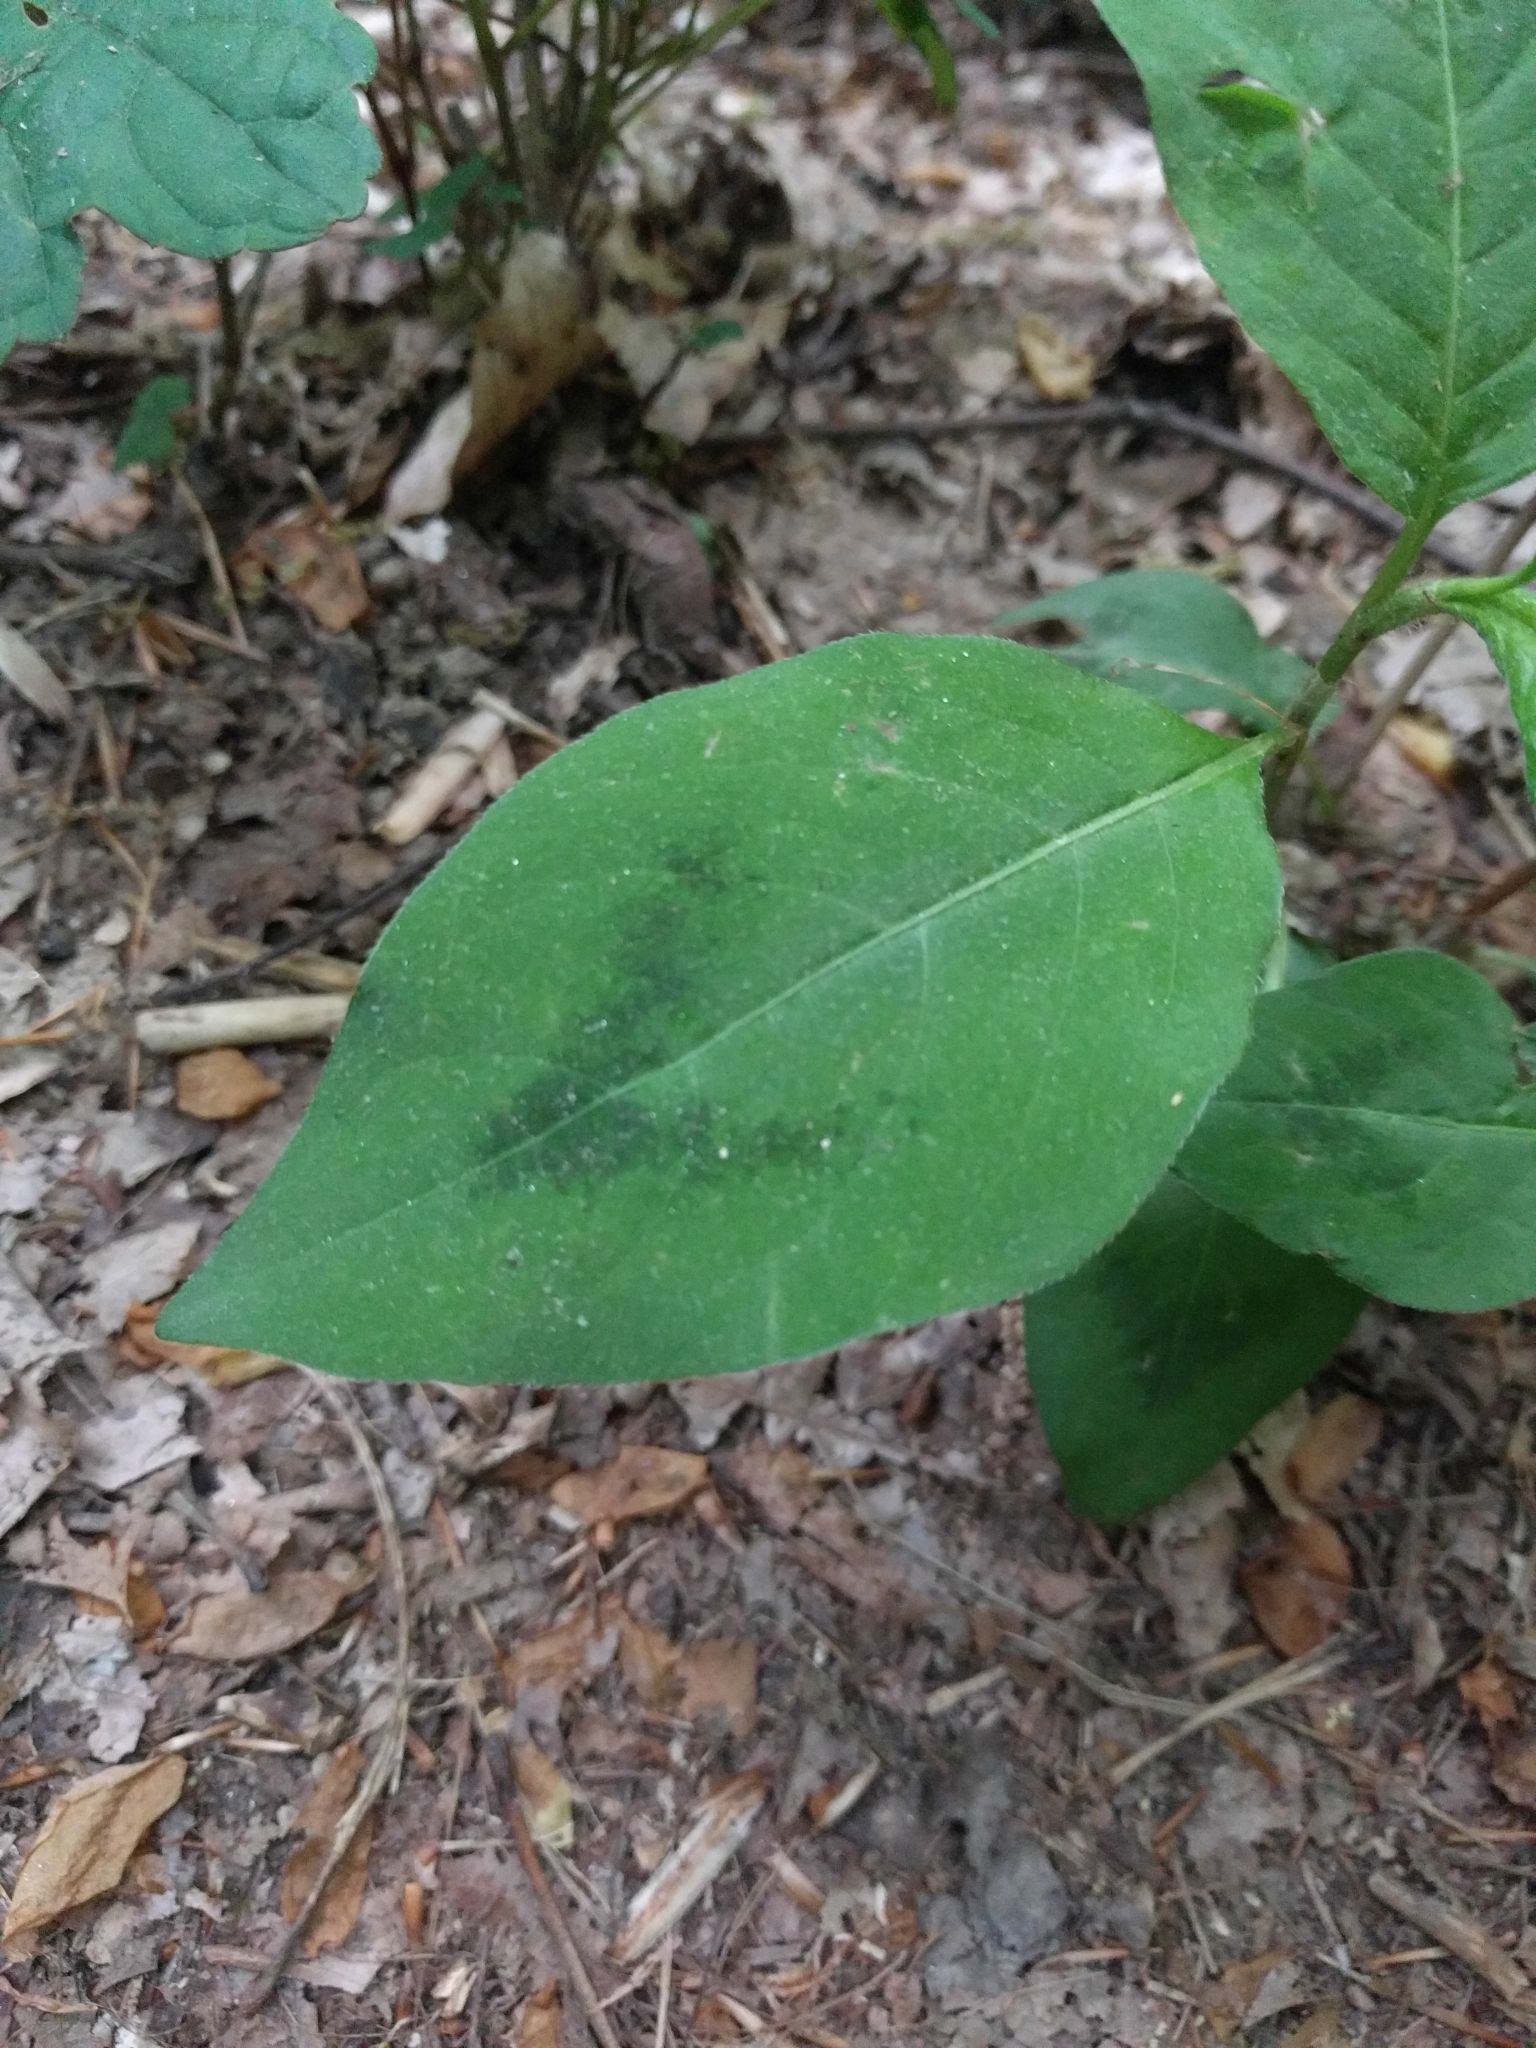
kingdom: Plantae
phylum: Tracheophyta
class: Magnoliopsida
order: Caryophyllales
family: Polygonaceae
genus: Persicaria
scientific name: Persicaria virginiana
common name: Jumpseed
